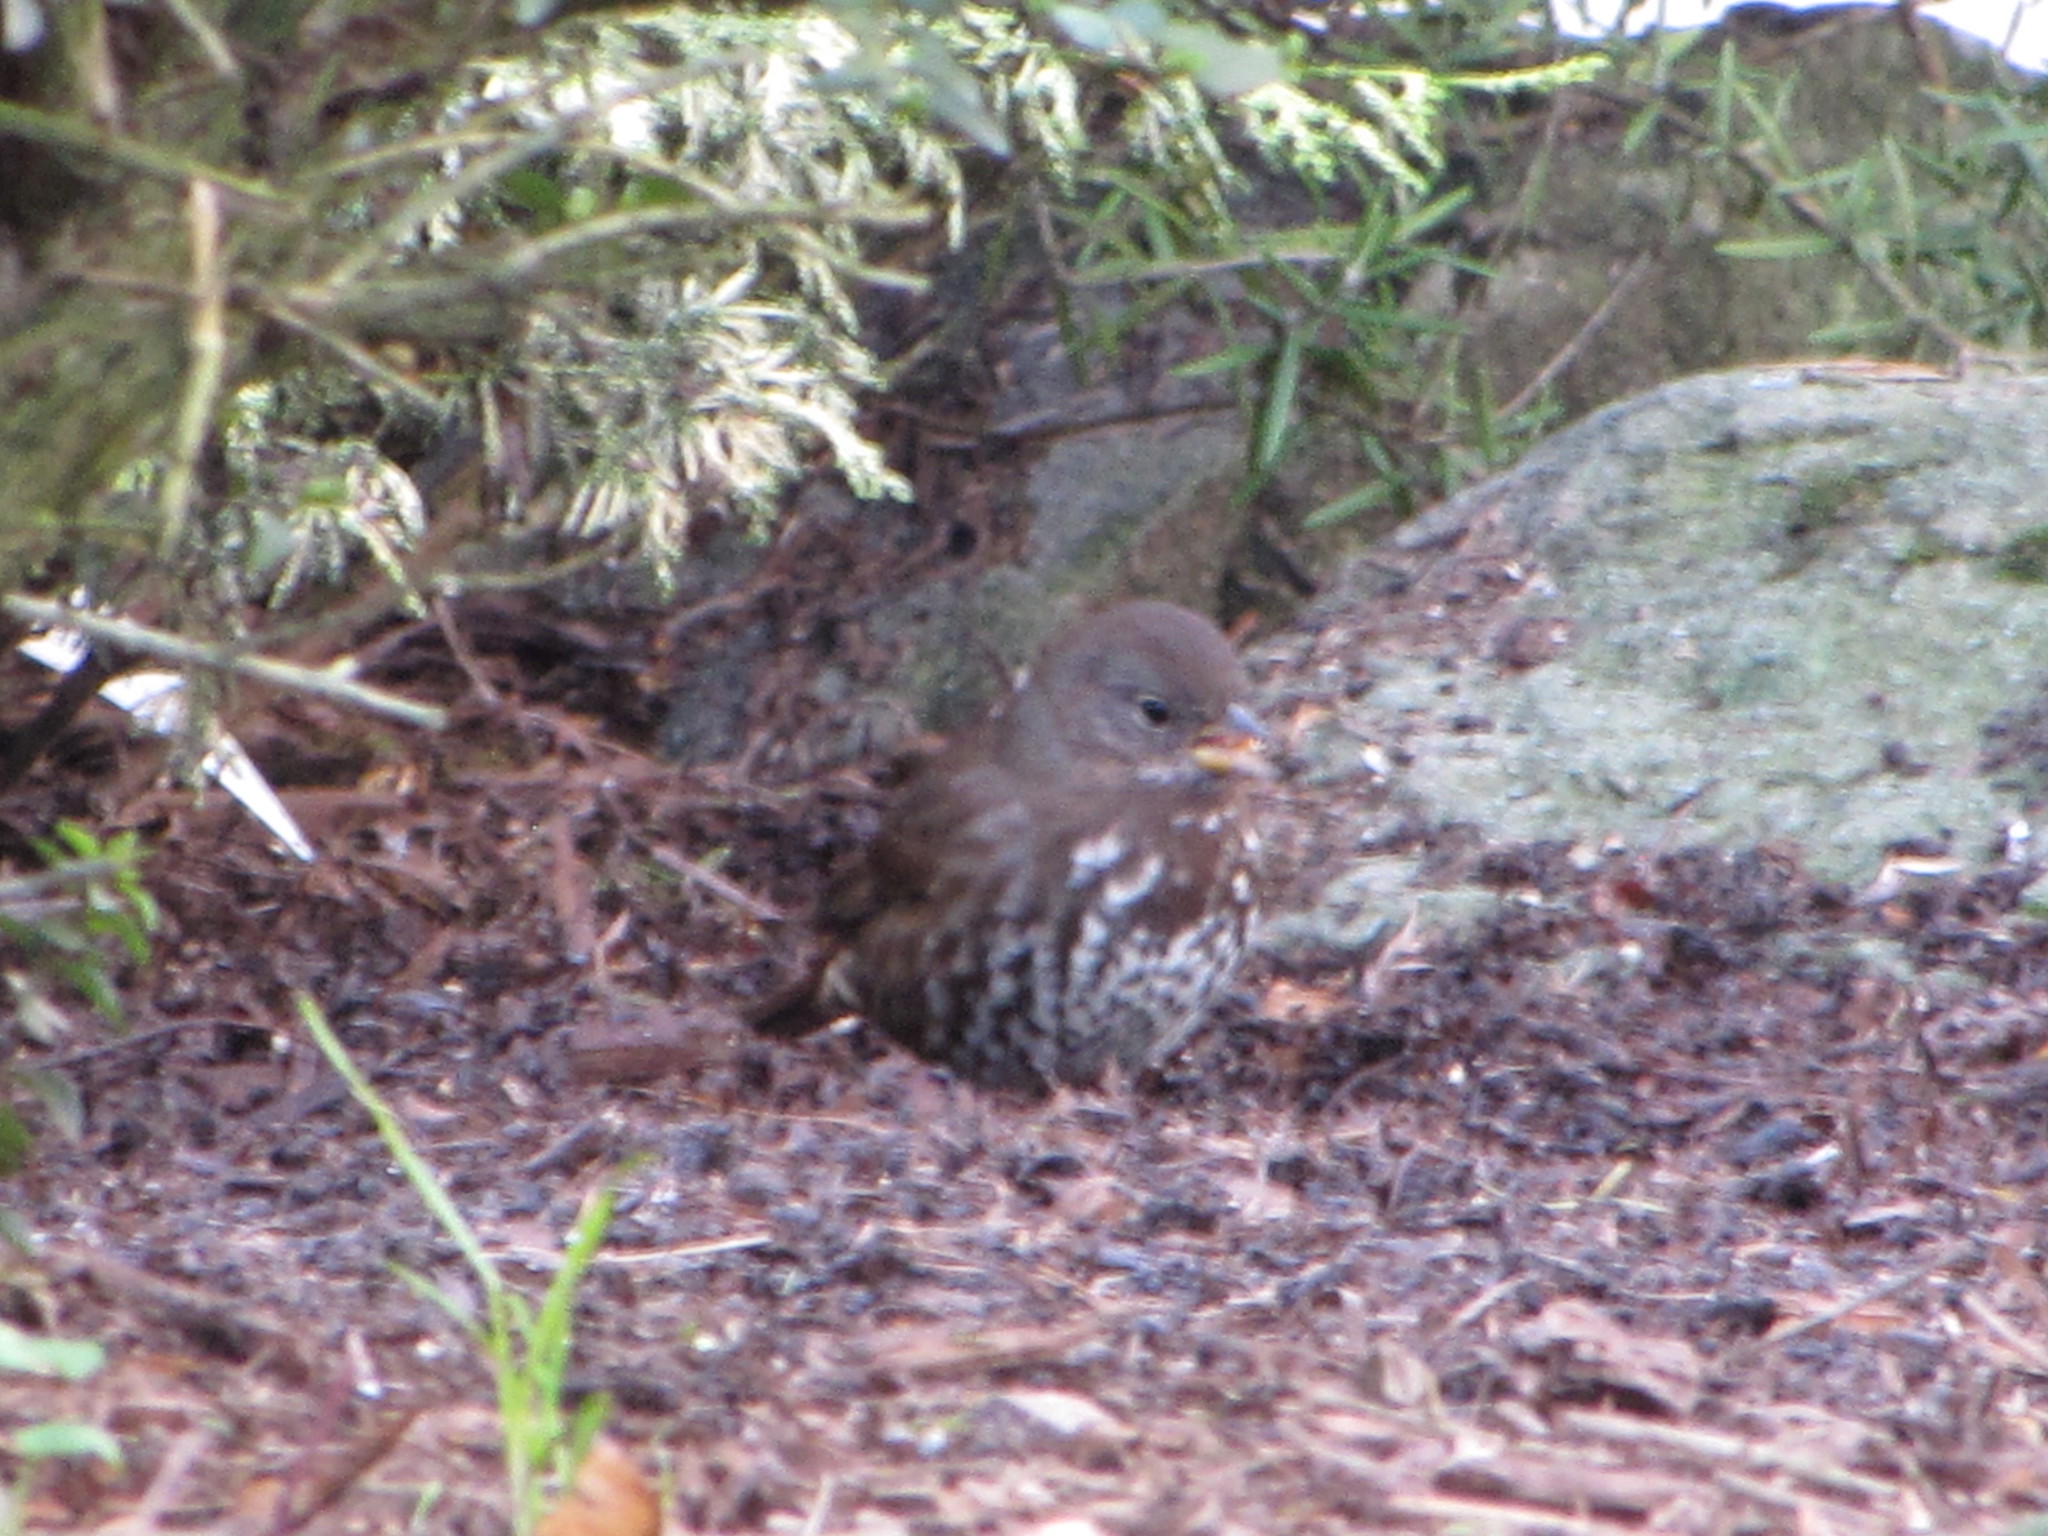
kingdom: Animalia
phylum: Chordata
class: Aves
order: Passeriformes
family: Passerellidae
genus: Passerella
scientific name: Passerella iliaca
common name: Fox sparrow
